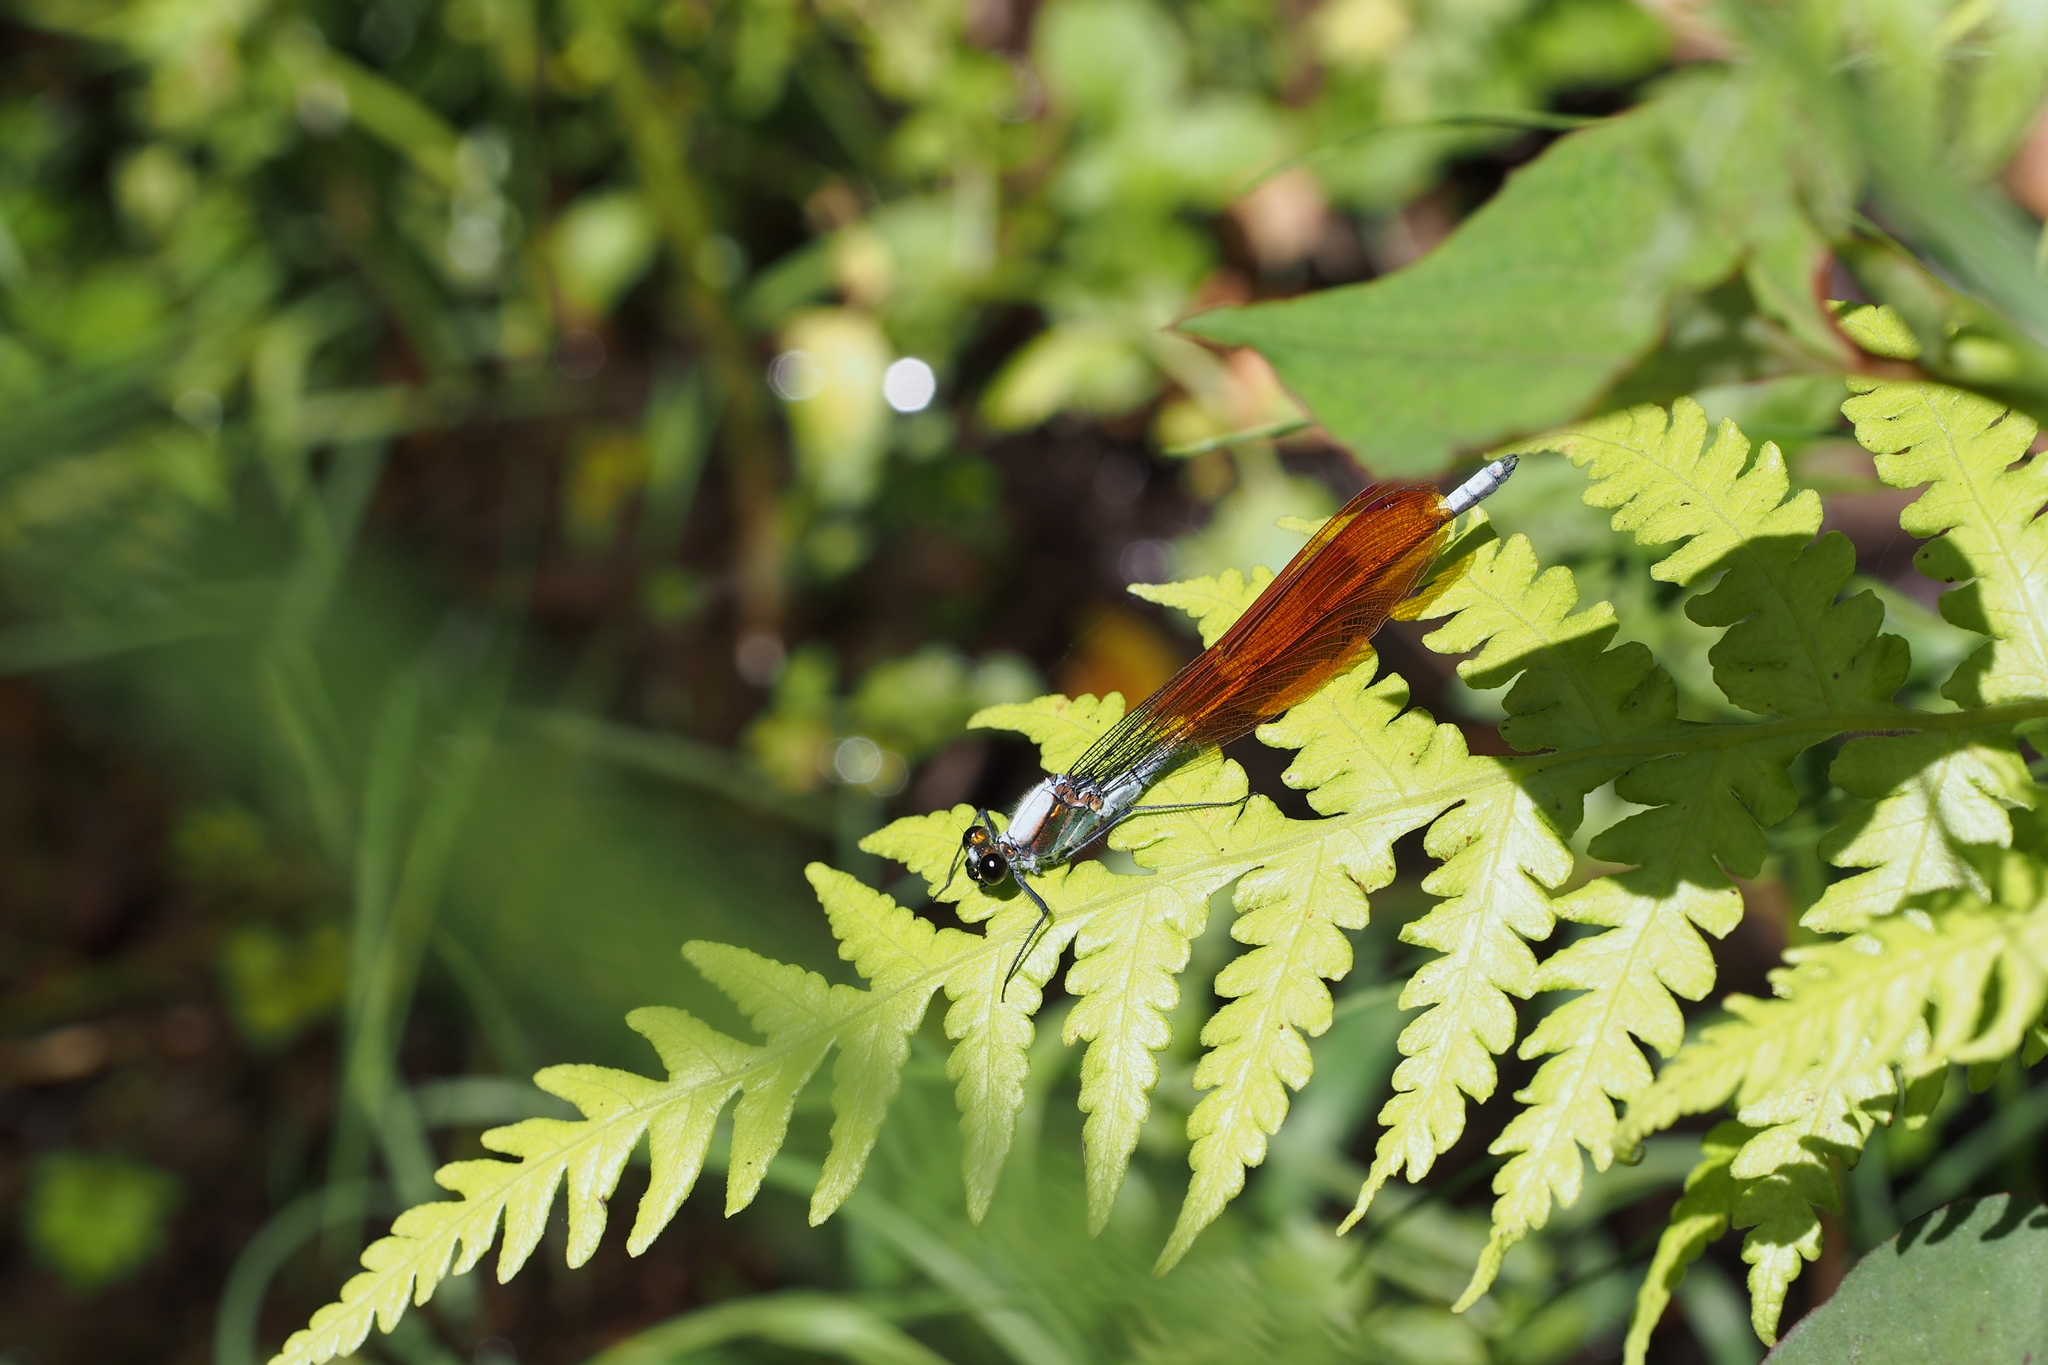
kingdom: Animalia
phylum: Arthropoda
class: Insecta
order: Odonata
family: Calopterygidae
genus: Mnais
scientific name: Mnais pruinosa
